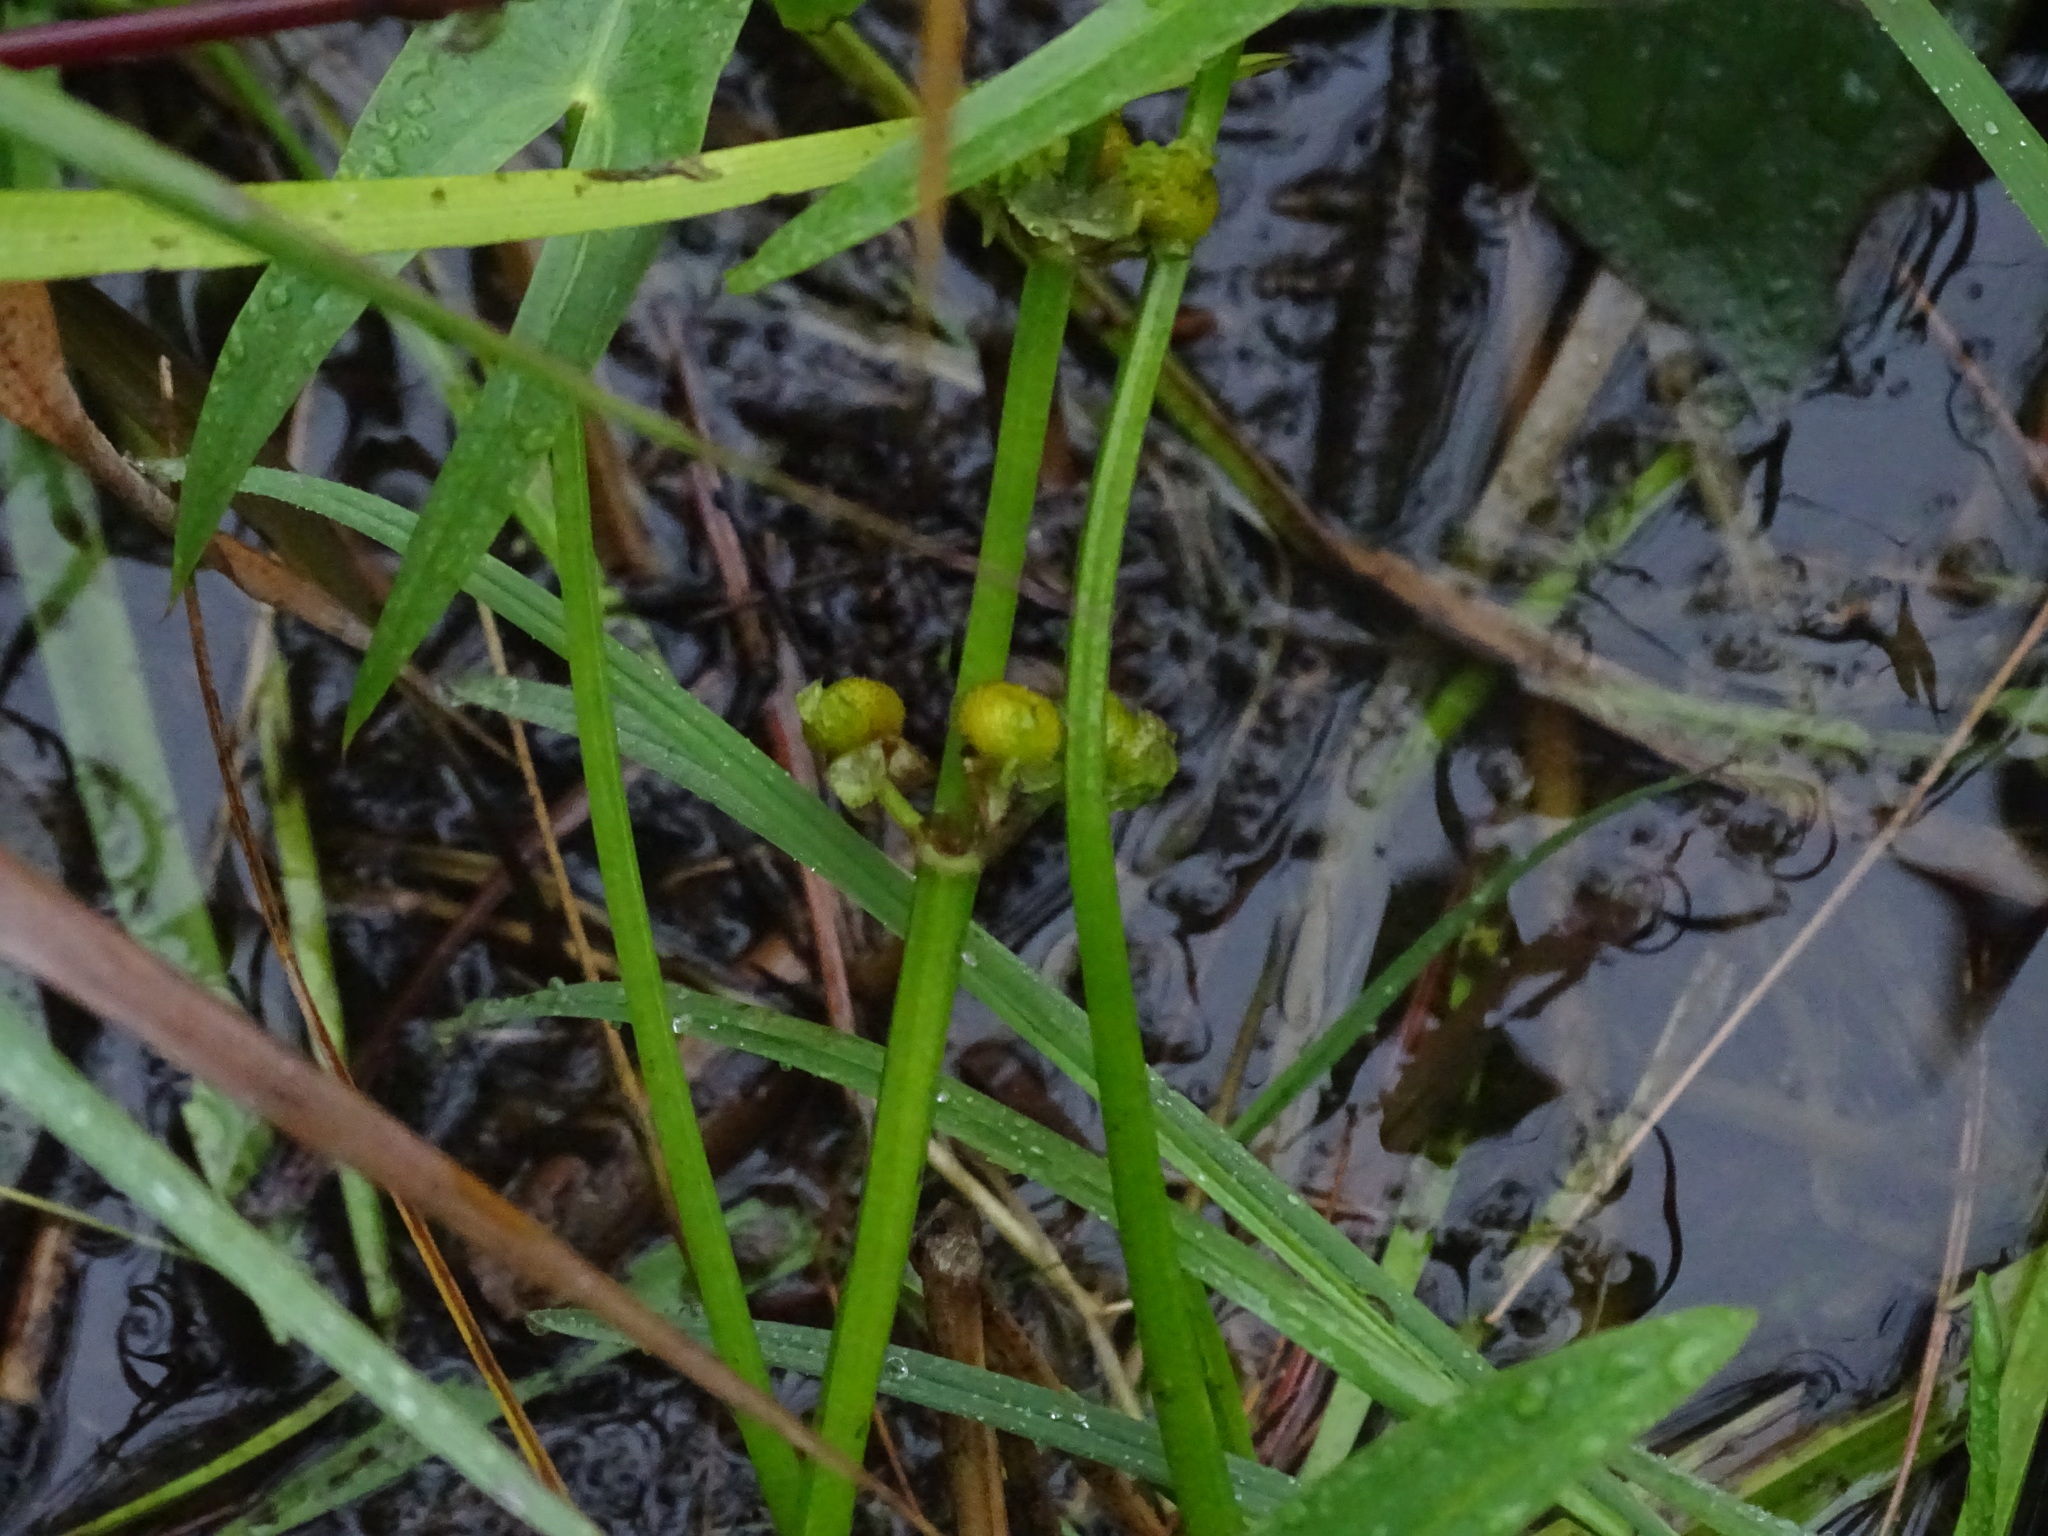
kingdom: Plantae
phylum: Tracheophyta
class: Liliopsida
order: Alismatales
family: Alismataceae
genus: Sagittaria
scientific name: Sagittaria latifolia
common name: Duck-potato
